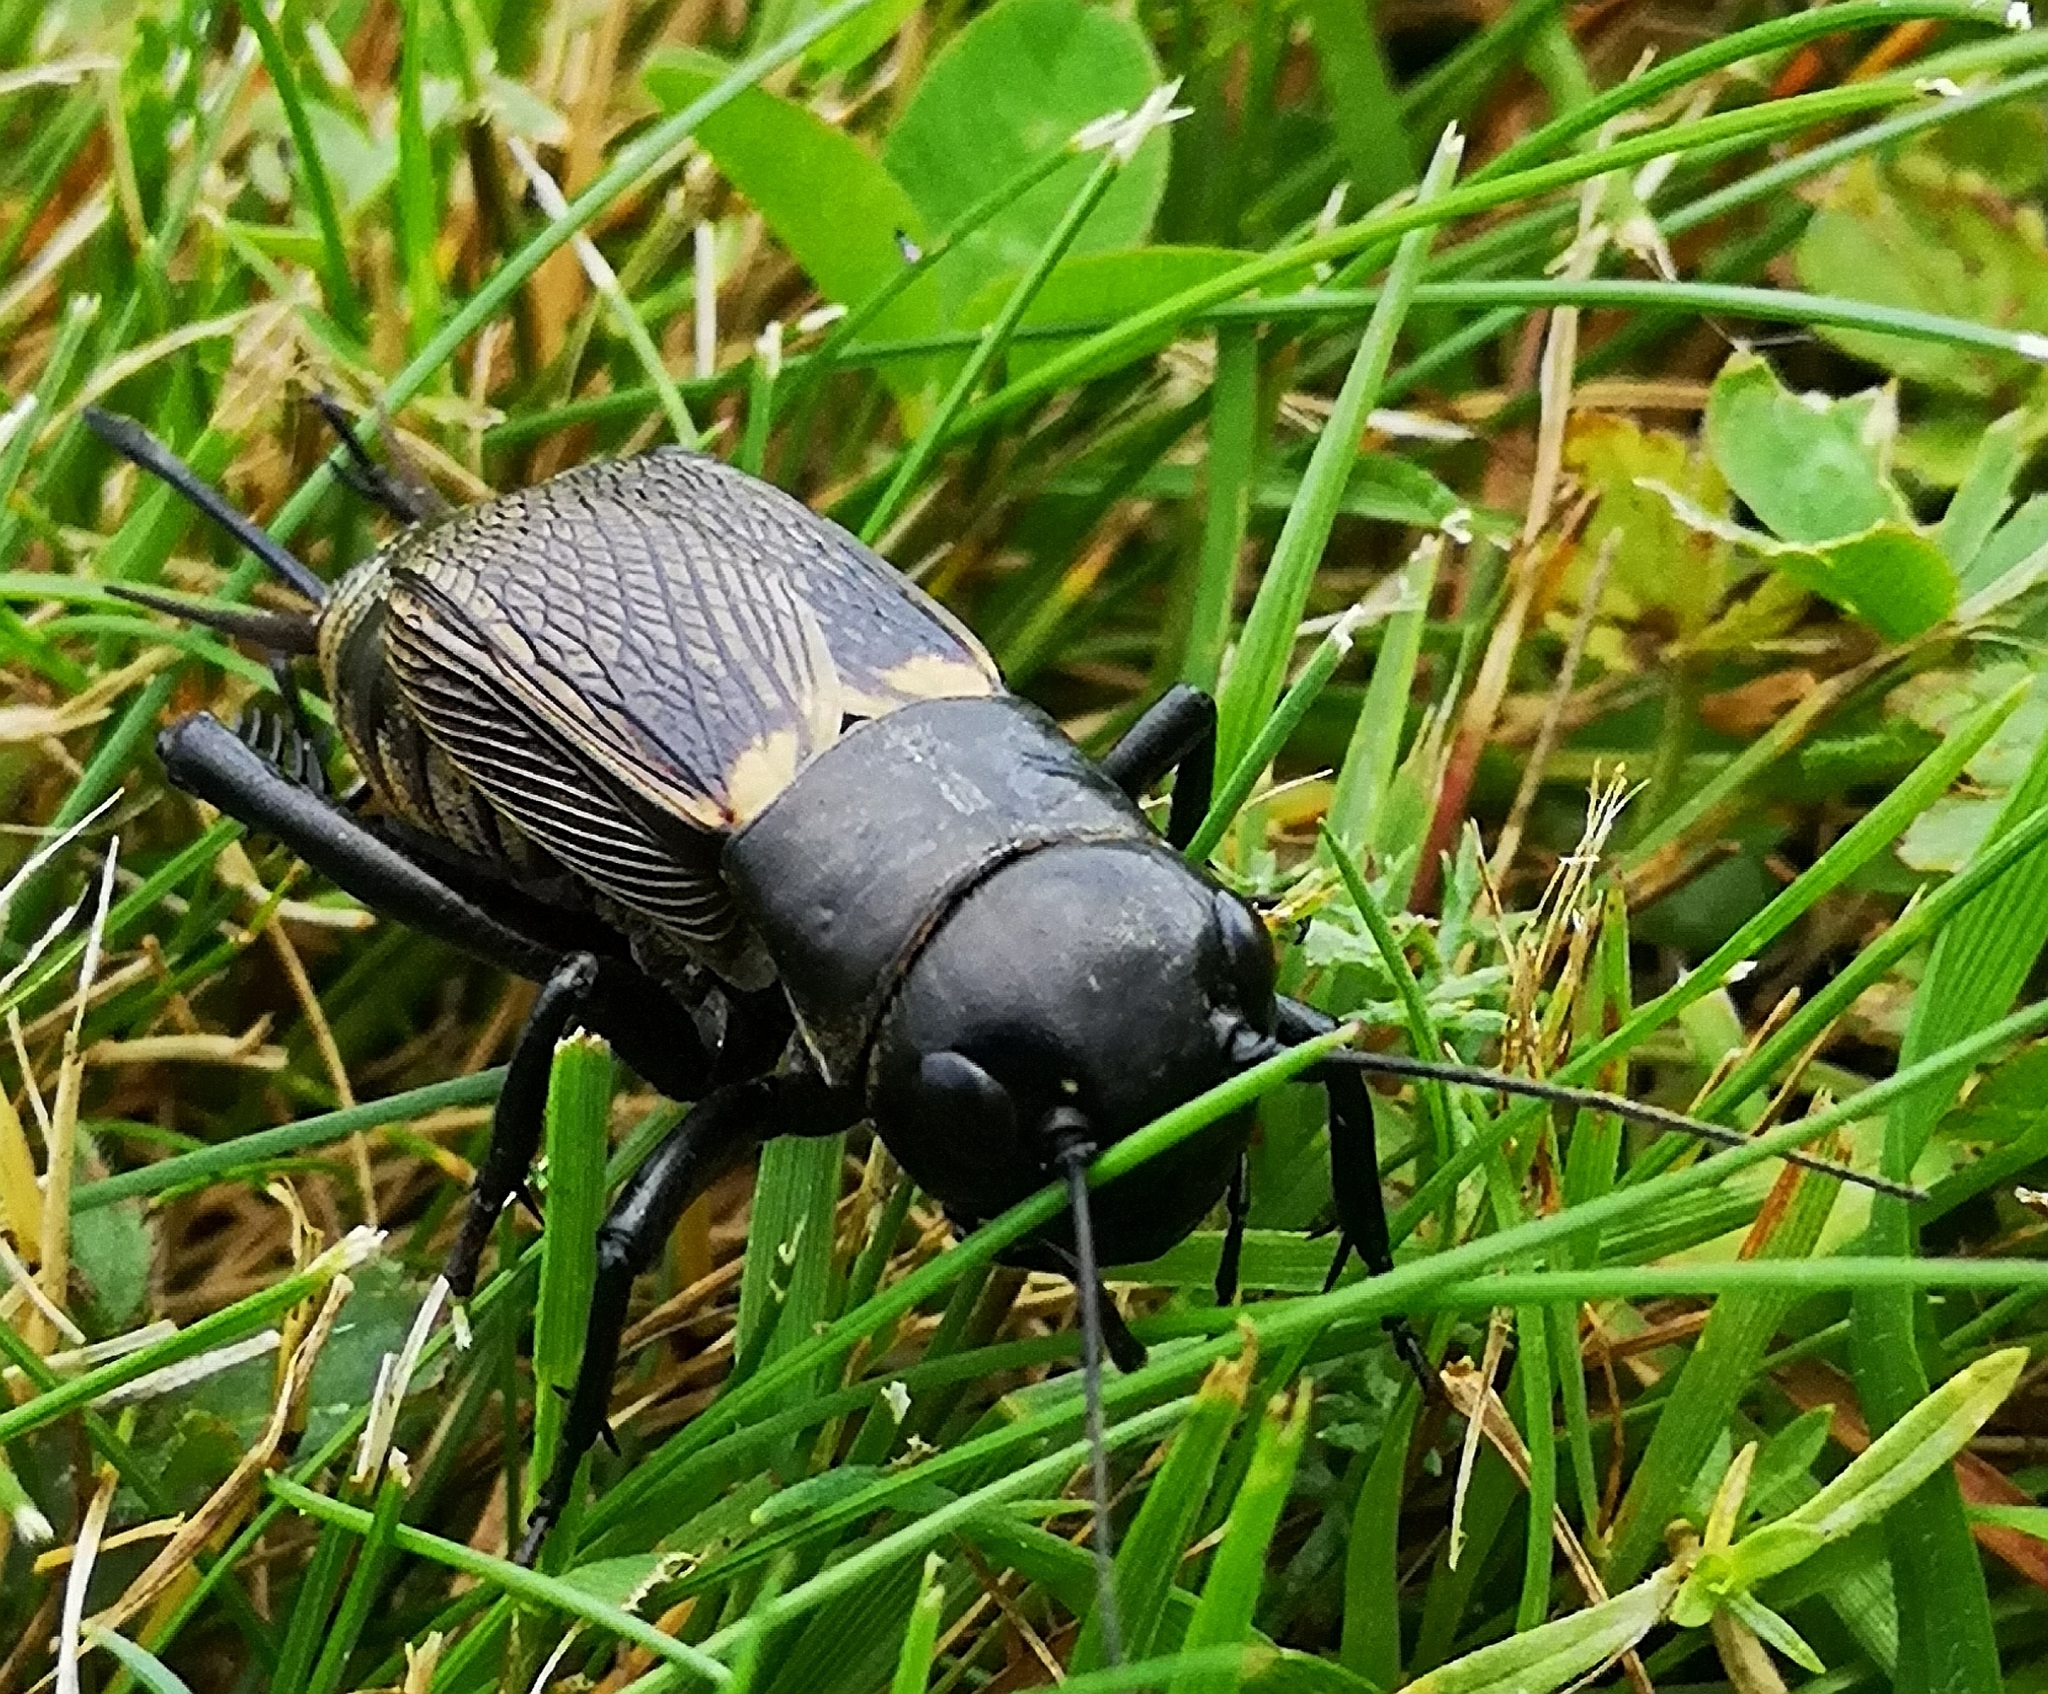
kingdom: Animalia
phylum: Arthropoda
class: Insecta
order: Orthoptera
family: Gryllidae
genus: Gryllus
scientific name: Gryllus campestris
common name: Field cricket
